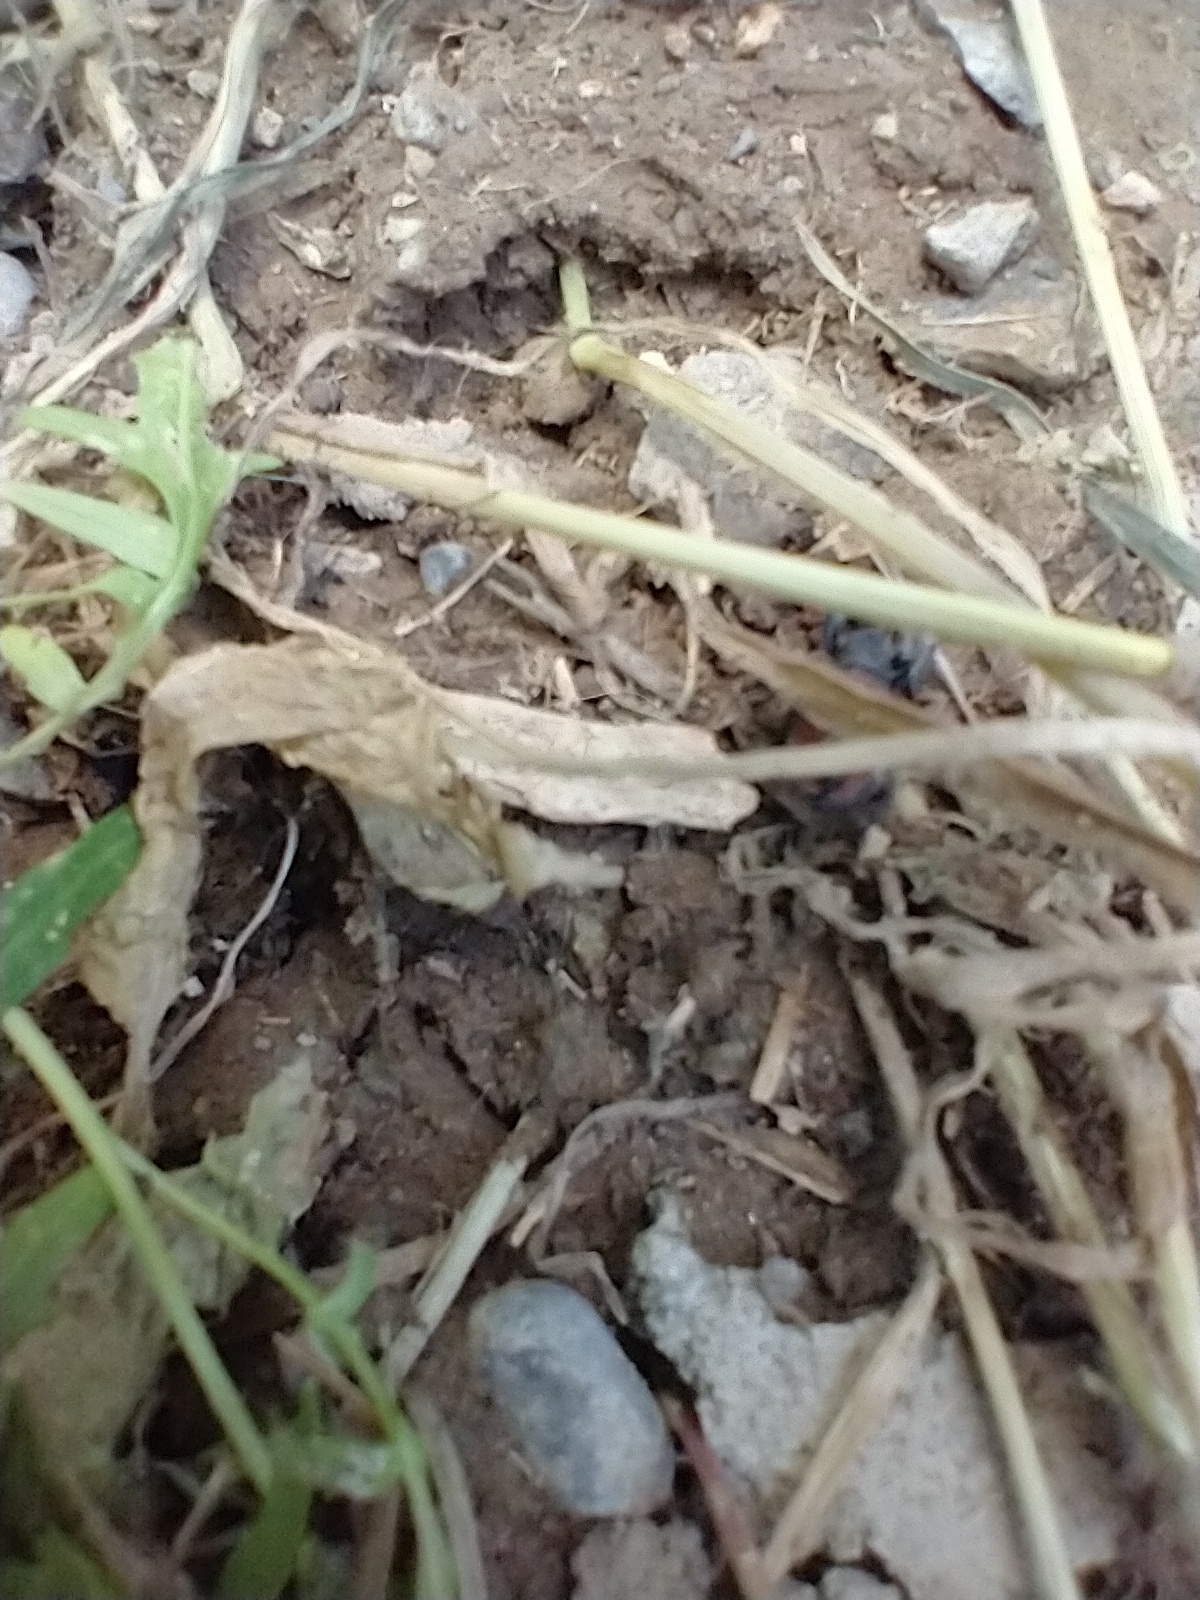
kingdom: Animalia
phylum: Arthropoda
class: Arachnida
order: Araneae
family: Salticidae
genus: Phidippus
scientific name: Phidippus johnsoni
